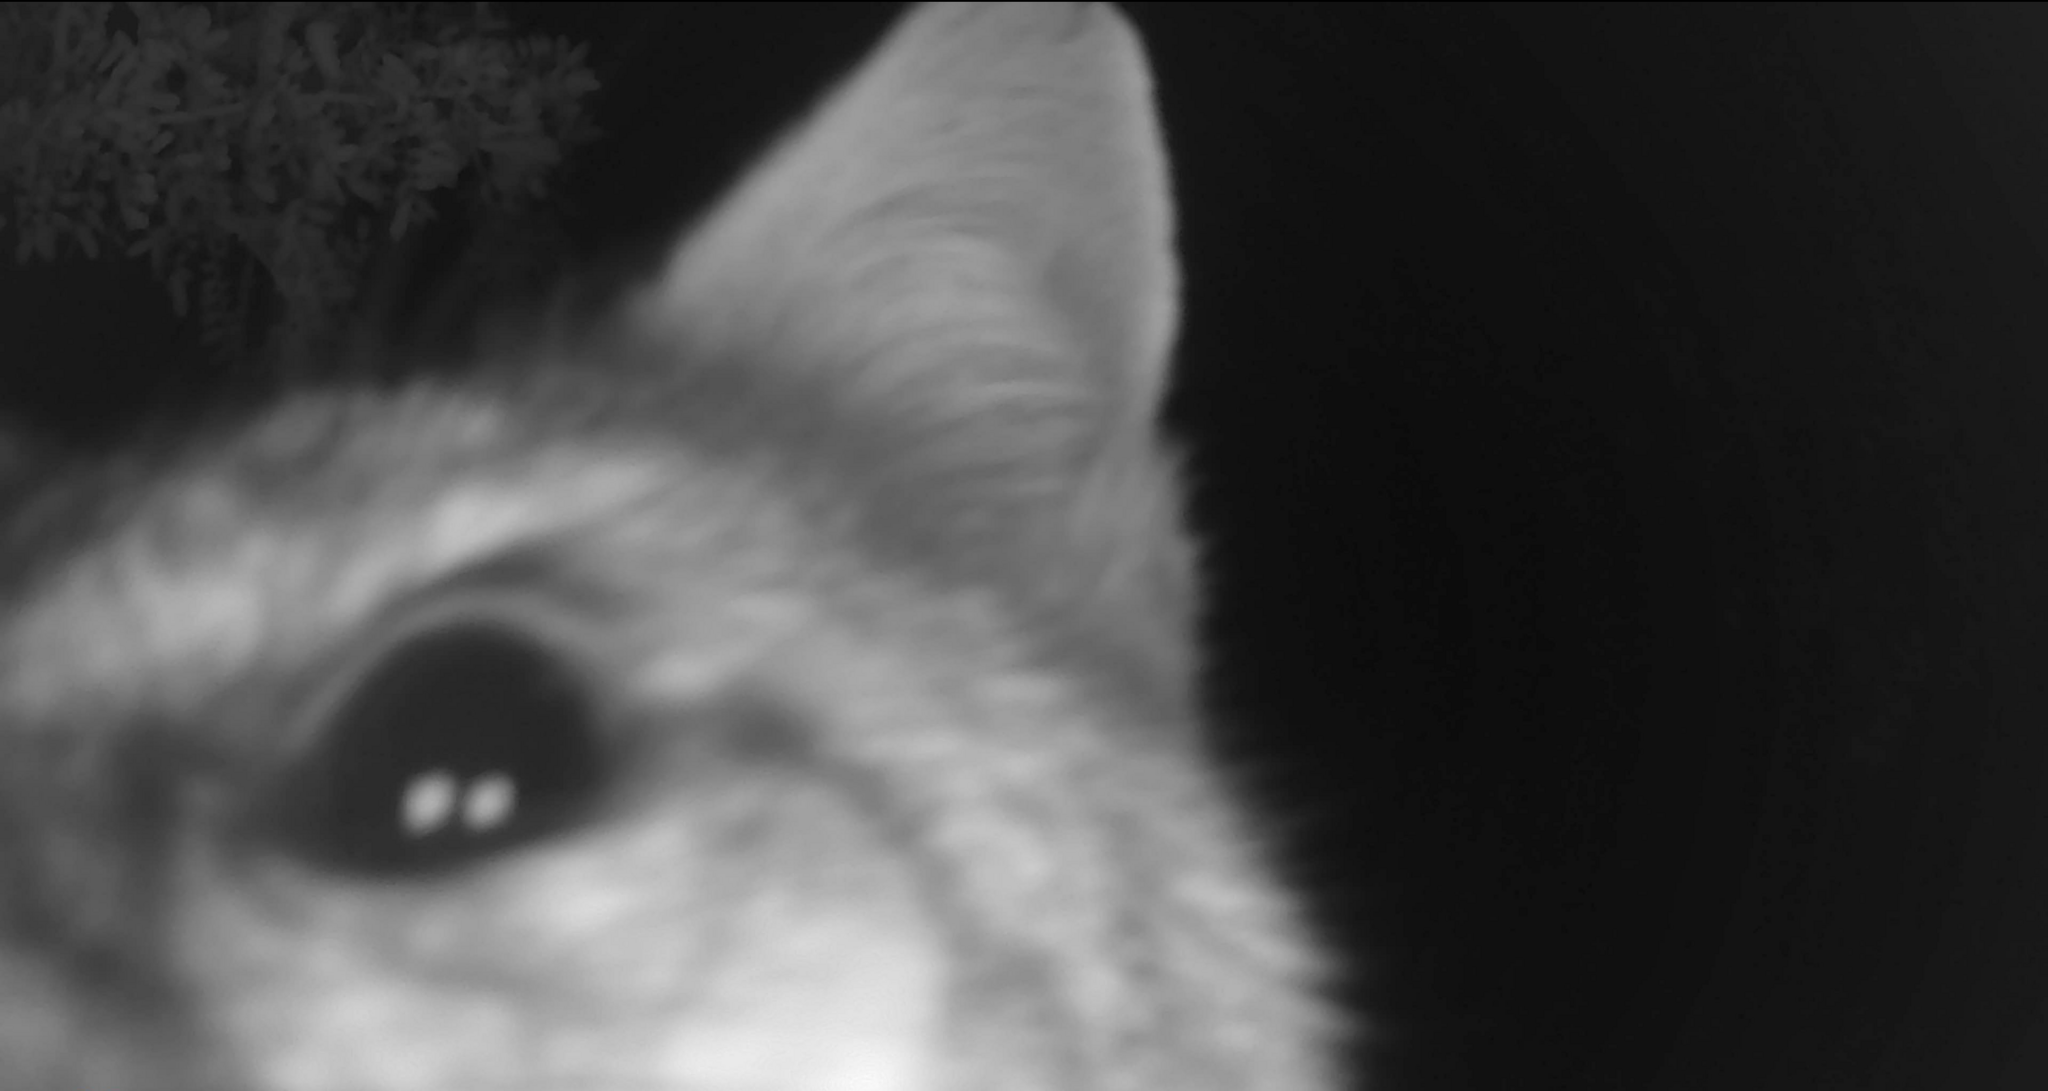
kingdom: Animalia
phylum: Chordata
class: Mammalia
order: Carnivora
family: Canidae
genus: Urocyon
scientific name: Urocyon cinereoargenteus
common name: Gray fox
